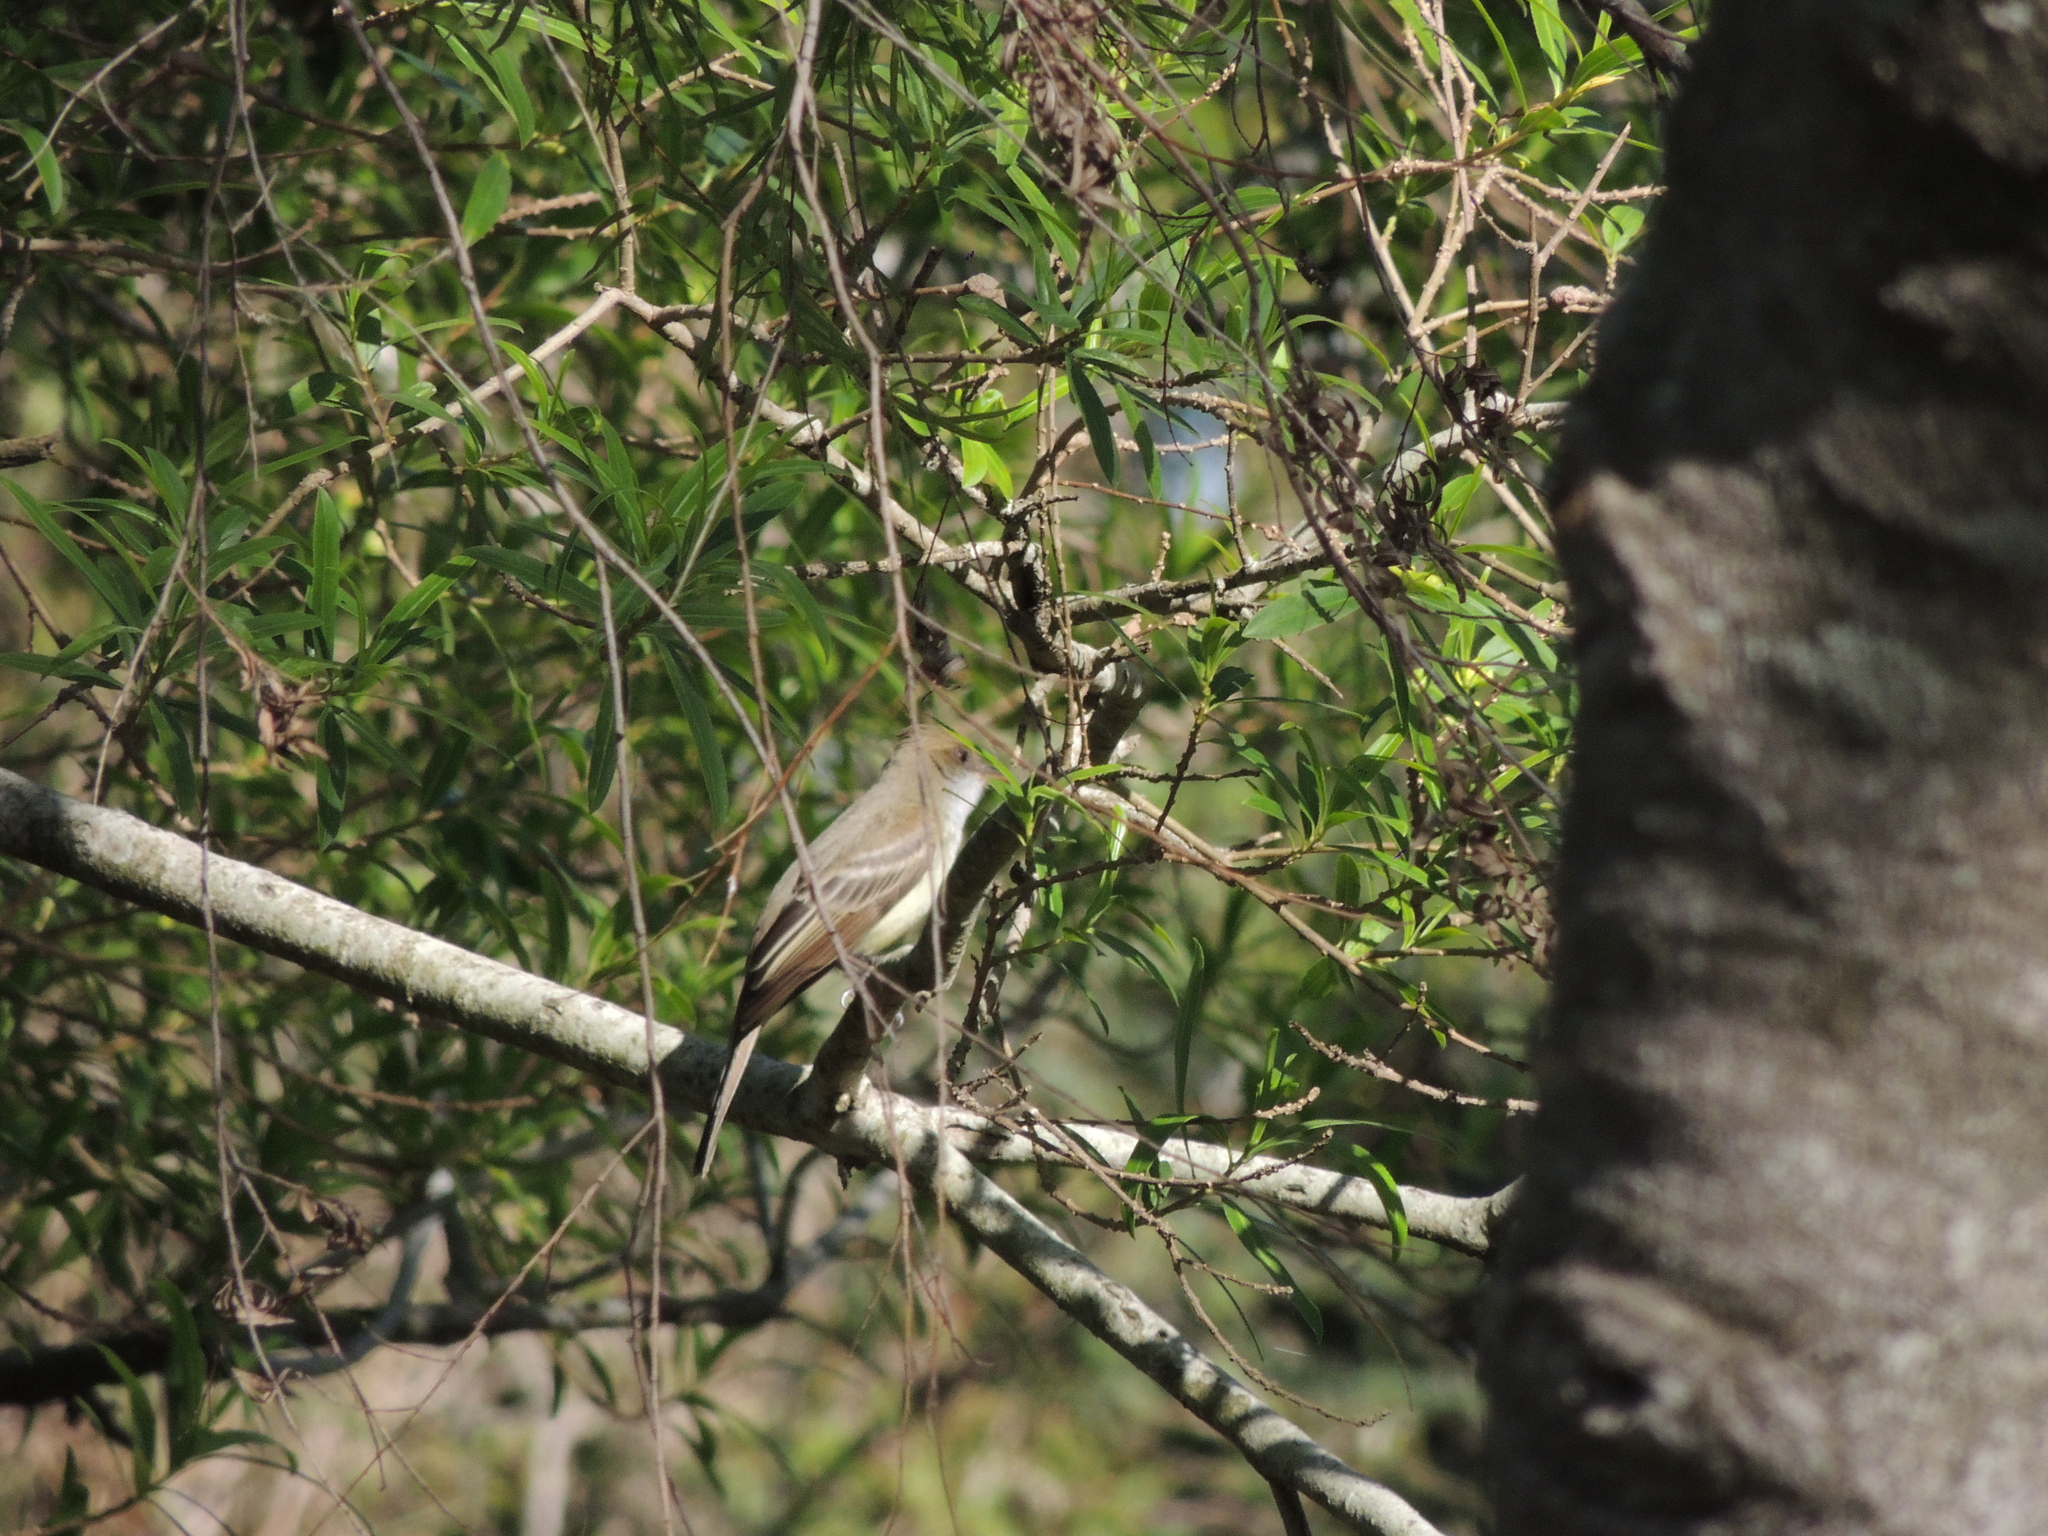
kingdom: Animalia
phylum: Chordata
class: Aves
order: Passeriformes
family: Tyrannidae
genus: Myiarchus
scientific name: Myiarchus swainsoni
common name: Swainson's flycatcher
